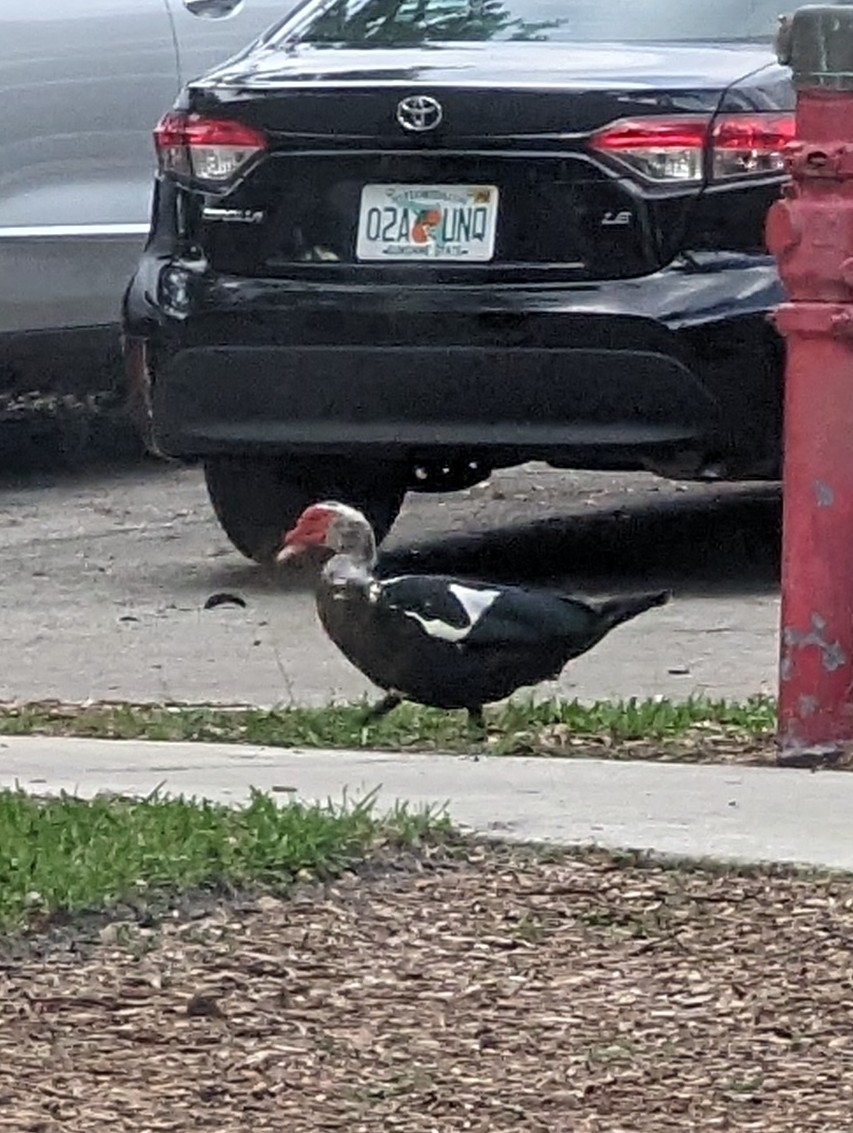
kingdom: Animalia
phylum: Chordata
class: Aves
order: Anseriformes
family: Anatidae
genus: Cairina
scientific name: Cairina moschata
